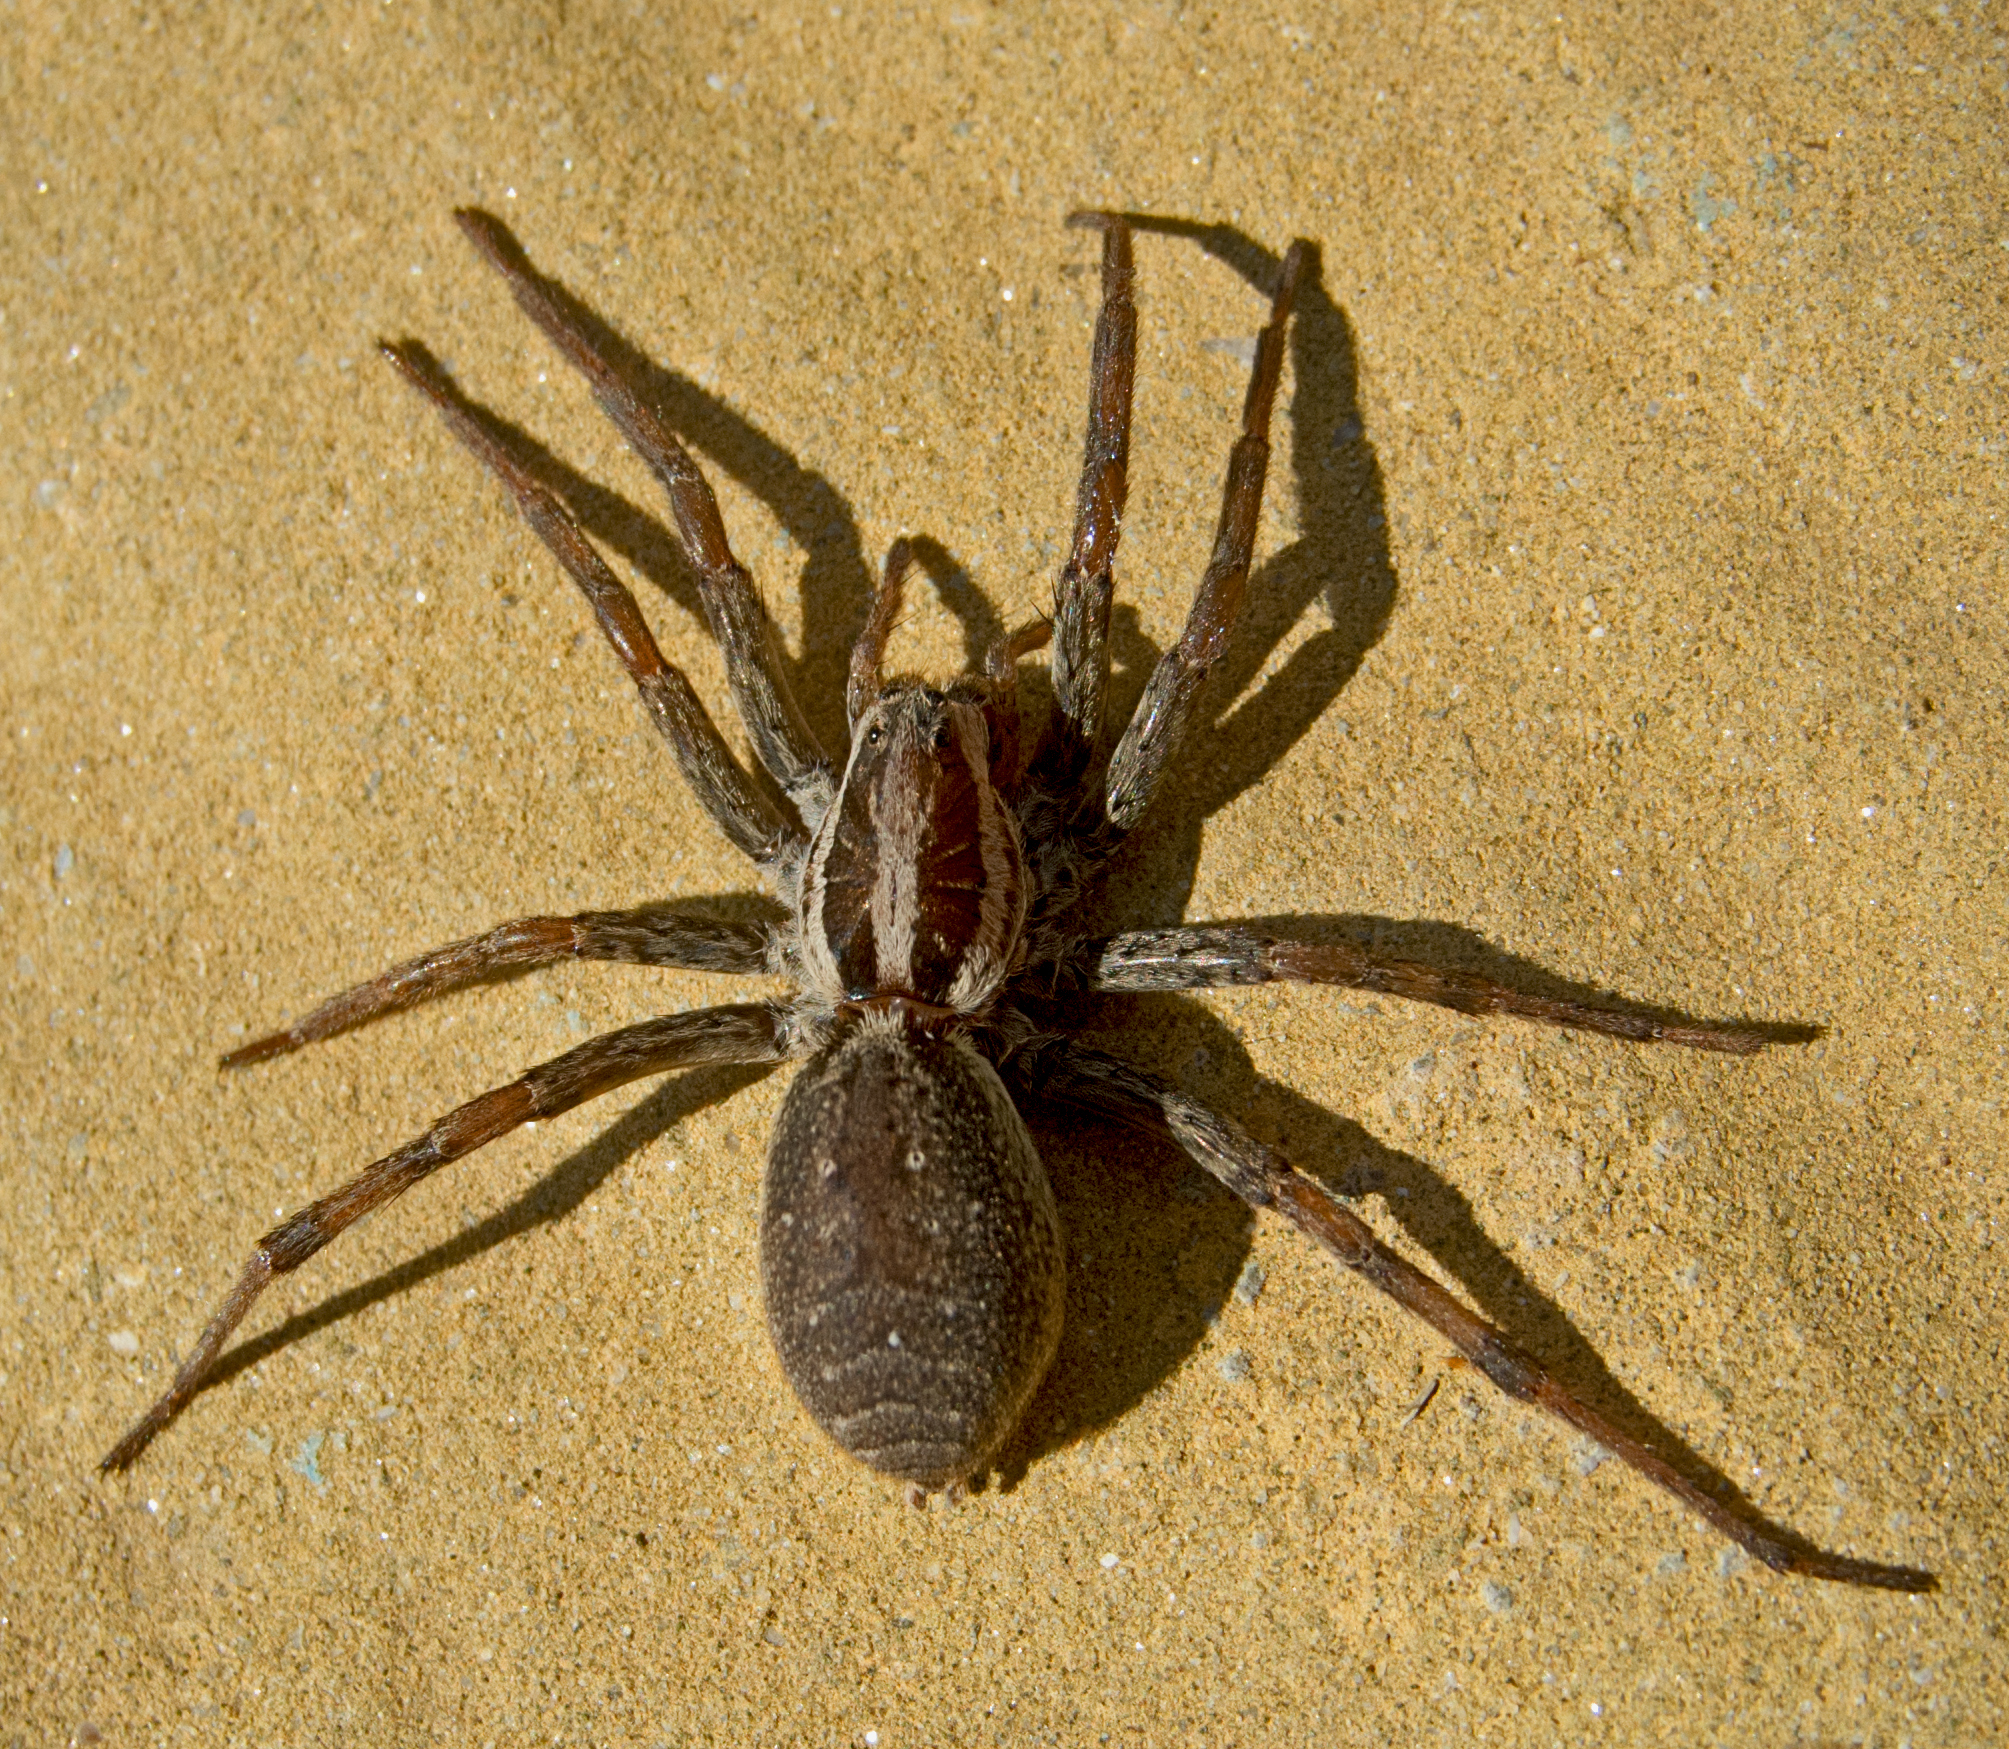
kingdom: Animalia
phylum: Arthropoda
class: Arachnida
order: Araneae
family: Lycosidae
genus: Hogna
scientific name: Hogna radiata
